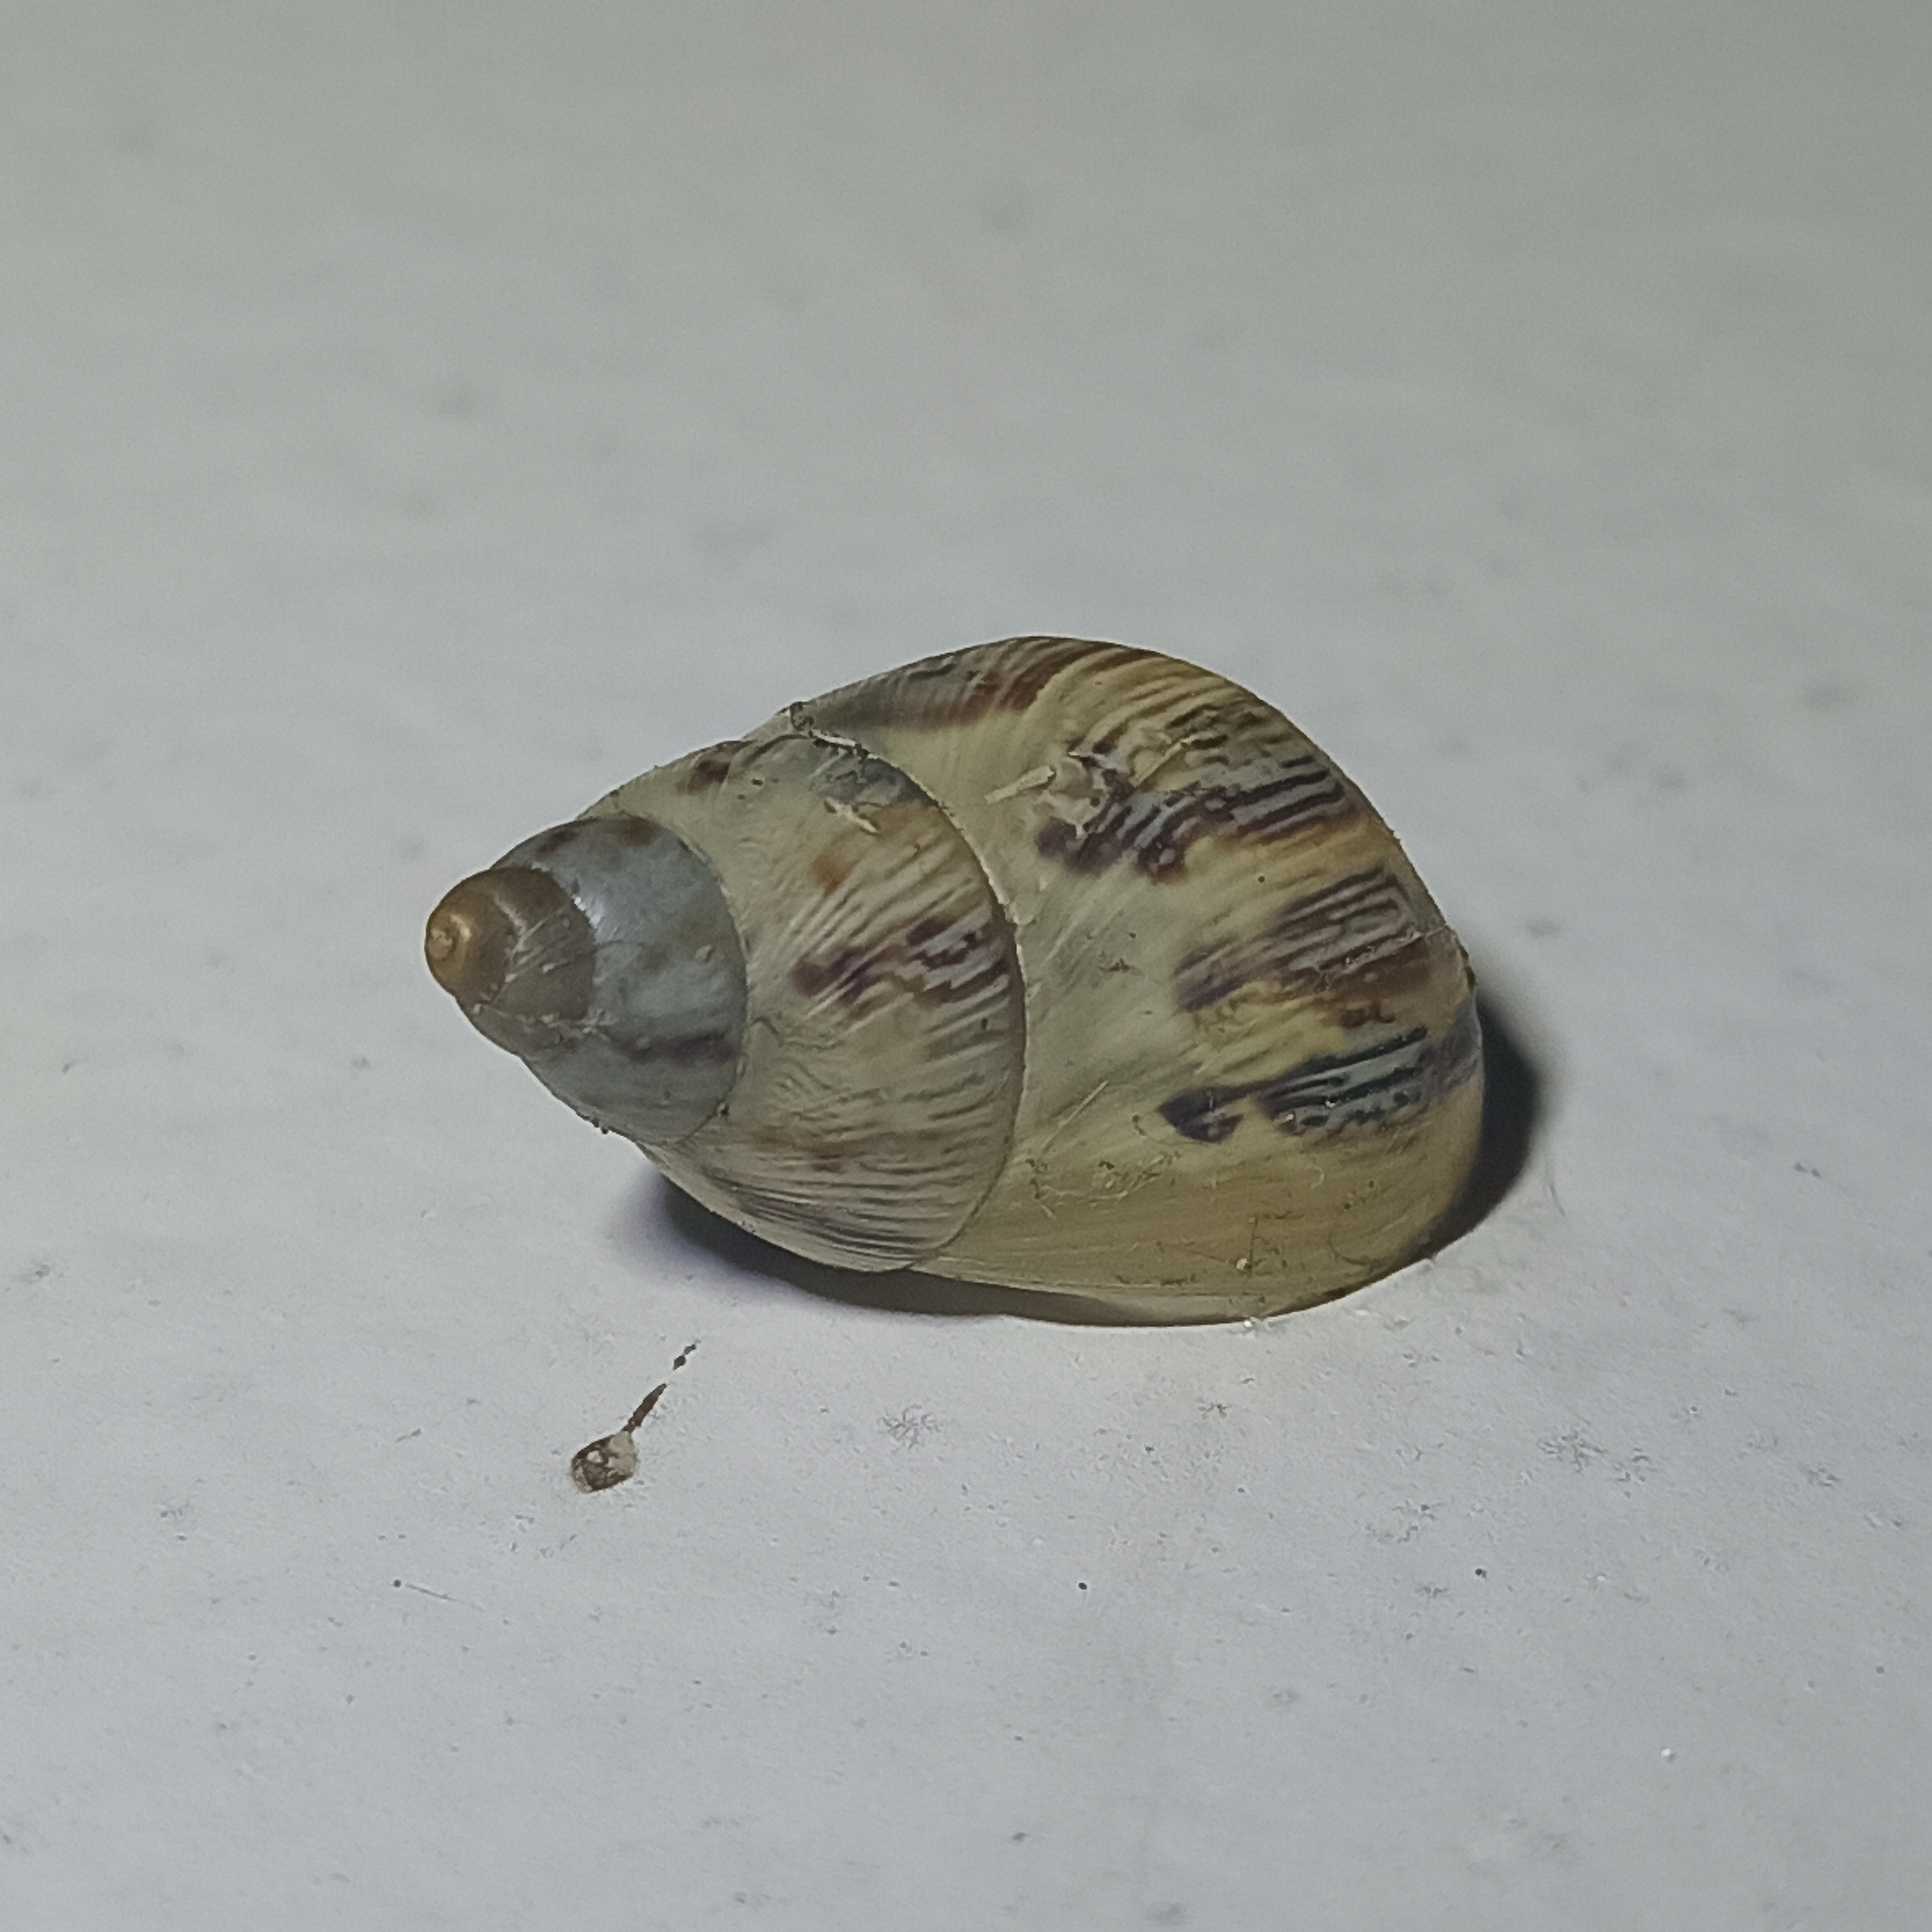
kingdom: Animalia
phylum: Mollusca
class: Gastropoda
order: Stylommatophora
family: Bulimulidae
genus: Drymaeus
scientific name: Drymaeus papyraceus
